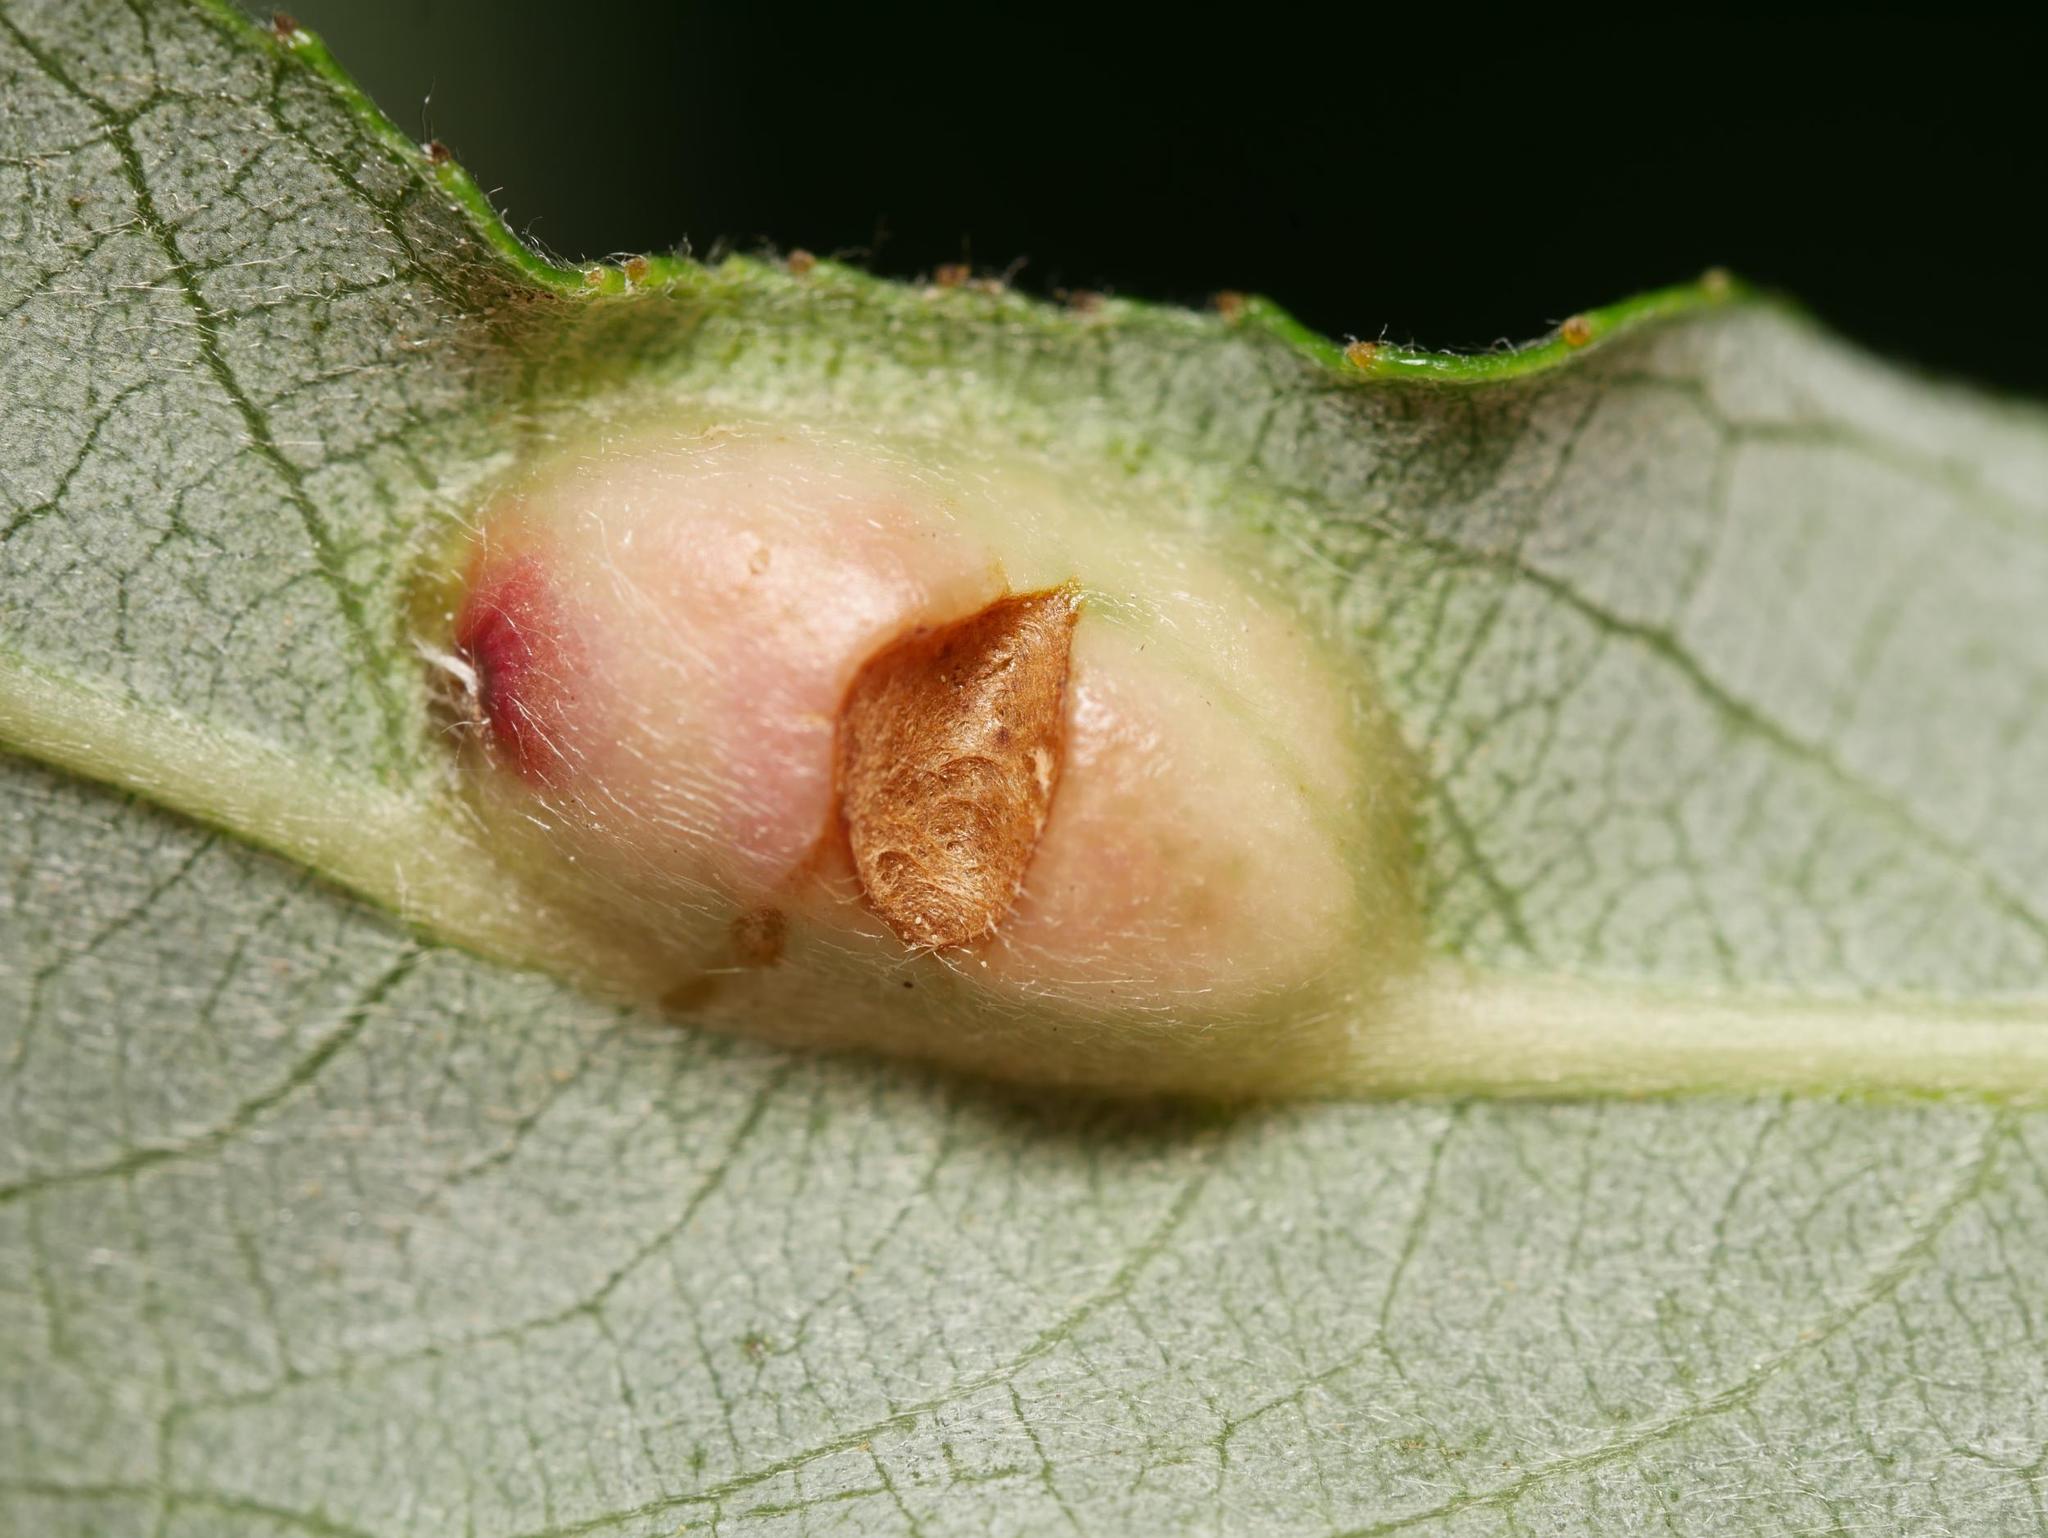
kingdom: Animalia
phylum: Arthropoda
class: Insecta
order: Hymenoptera
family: Tenthredinidae
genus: Pontania
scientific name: Pontania proxima
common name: Common sawfly
